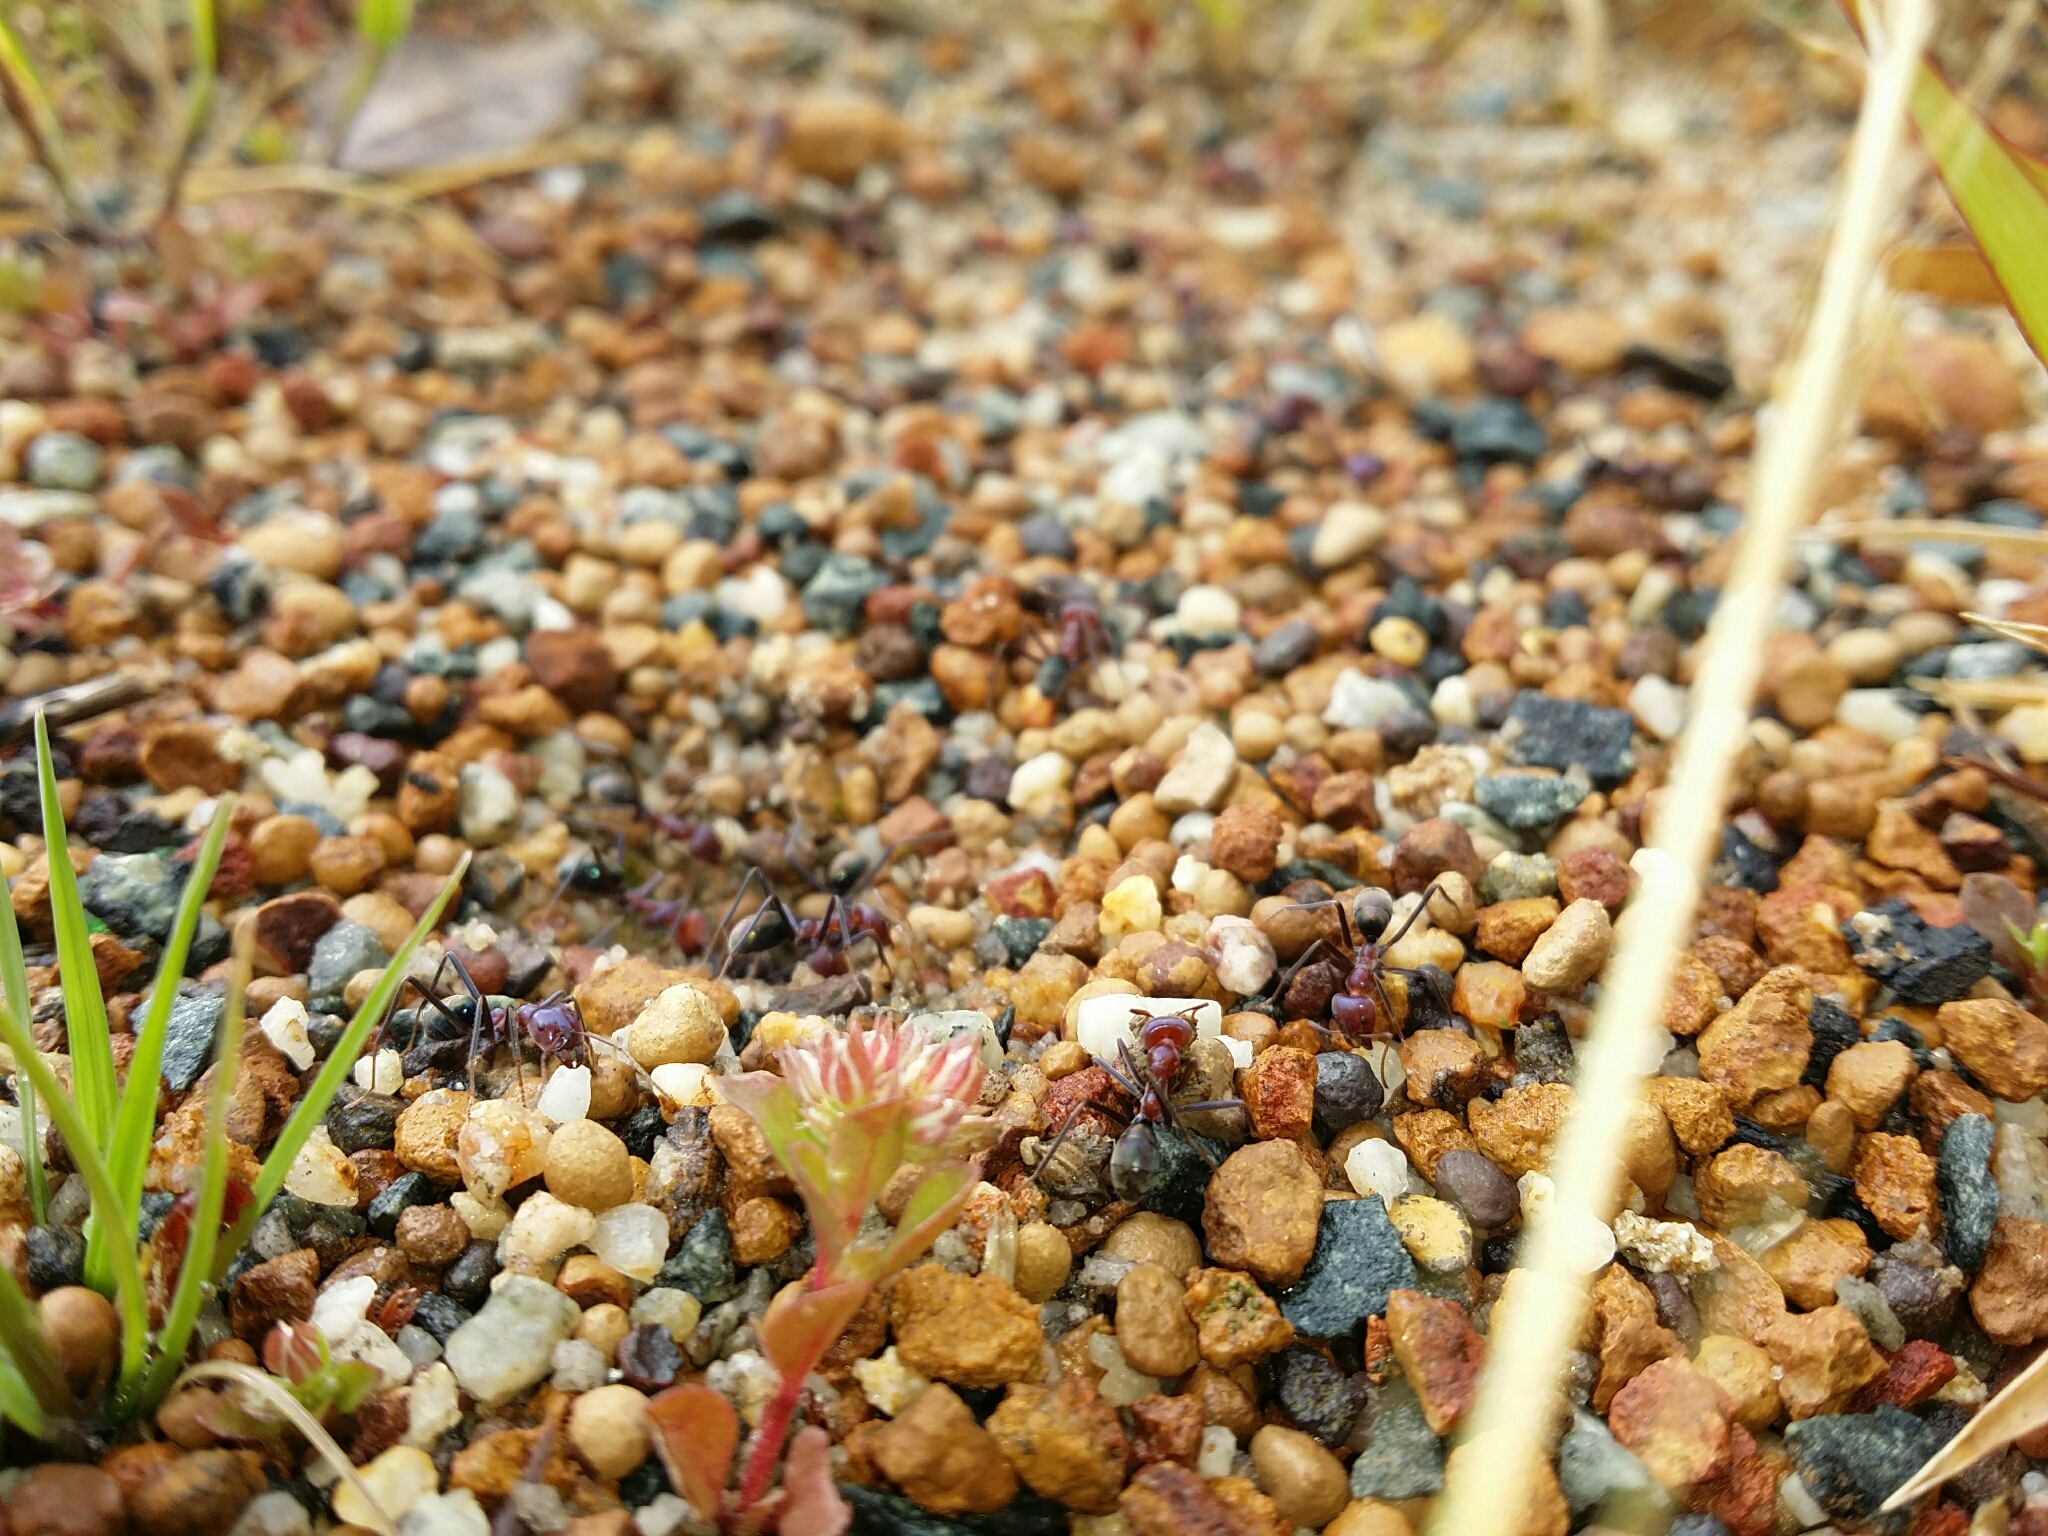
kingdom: Animalia
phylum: Arthropoda
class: Insecta
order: Hymenoptera
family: Formicidae
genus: Iridomyrmex
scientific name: Iridomyrmex purpureus
